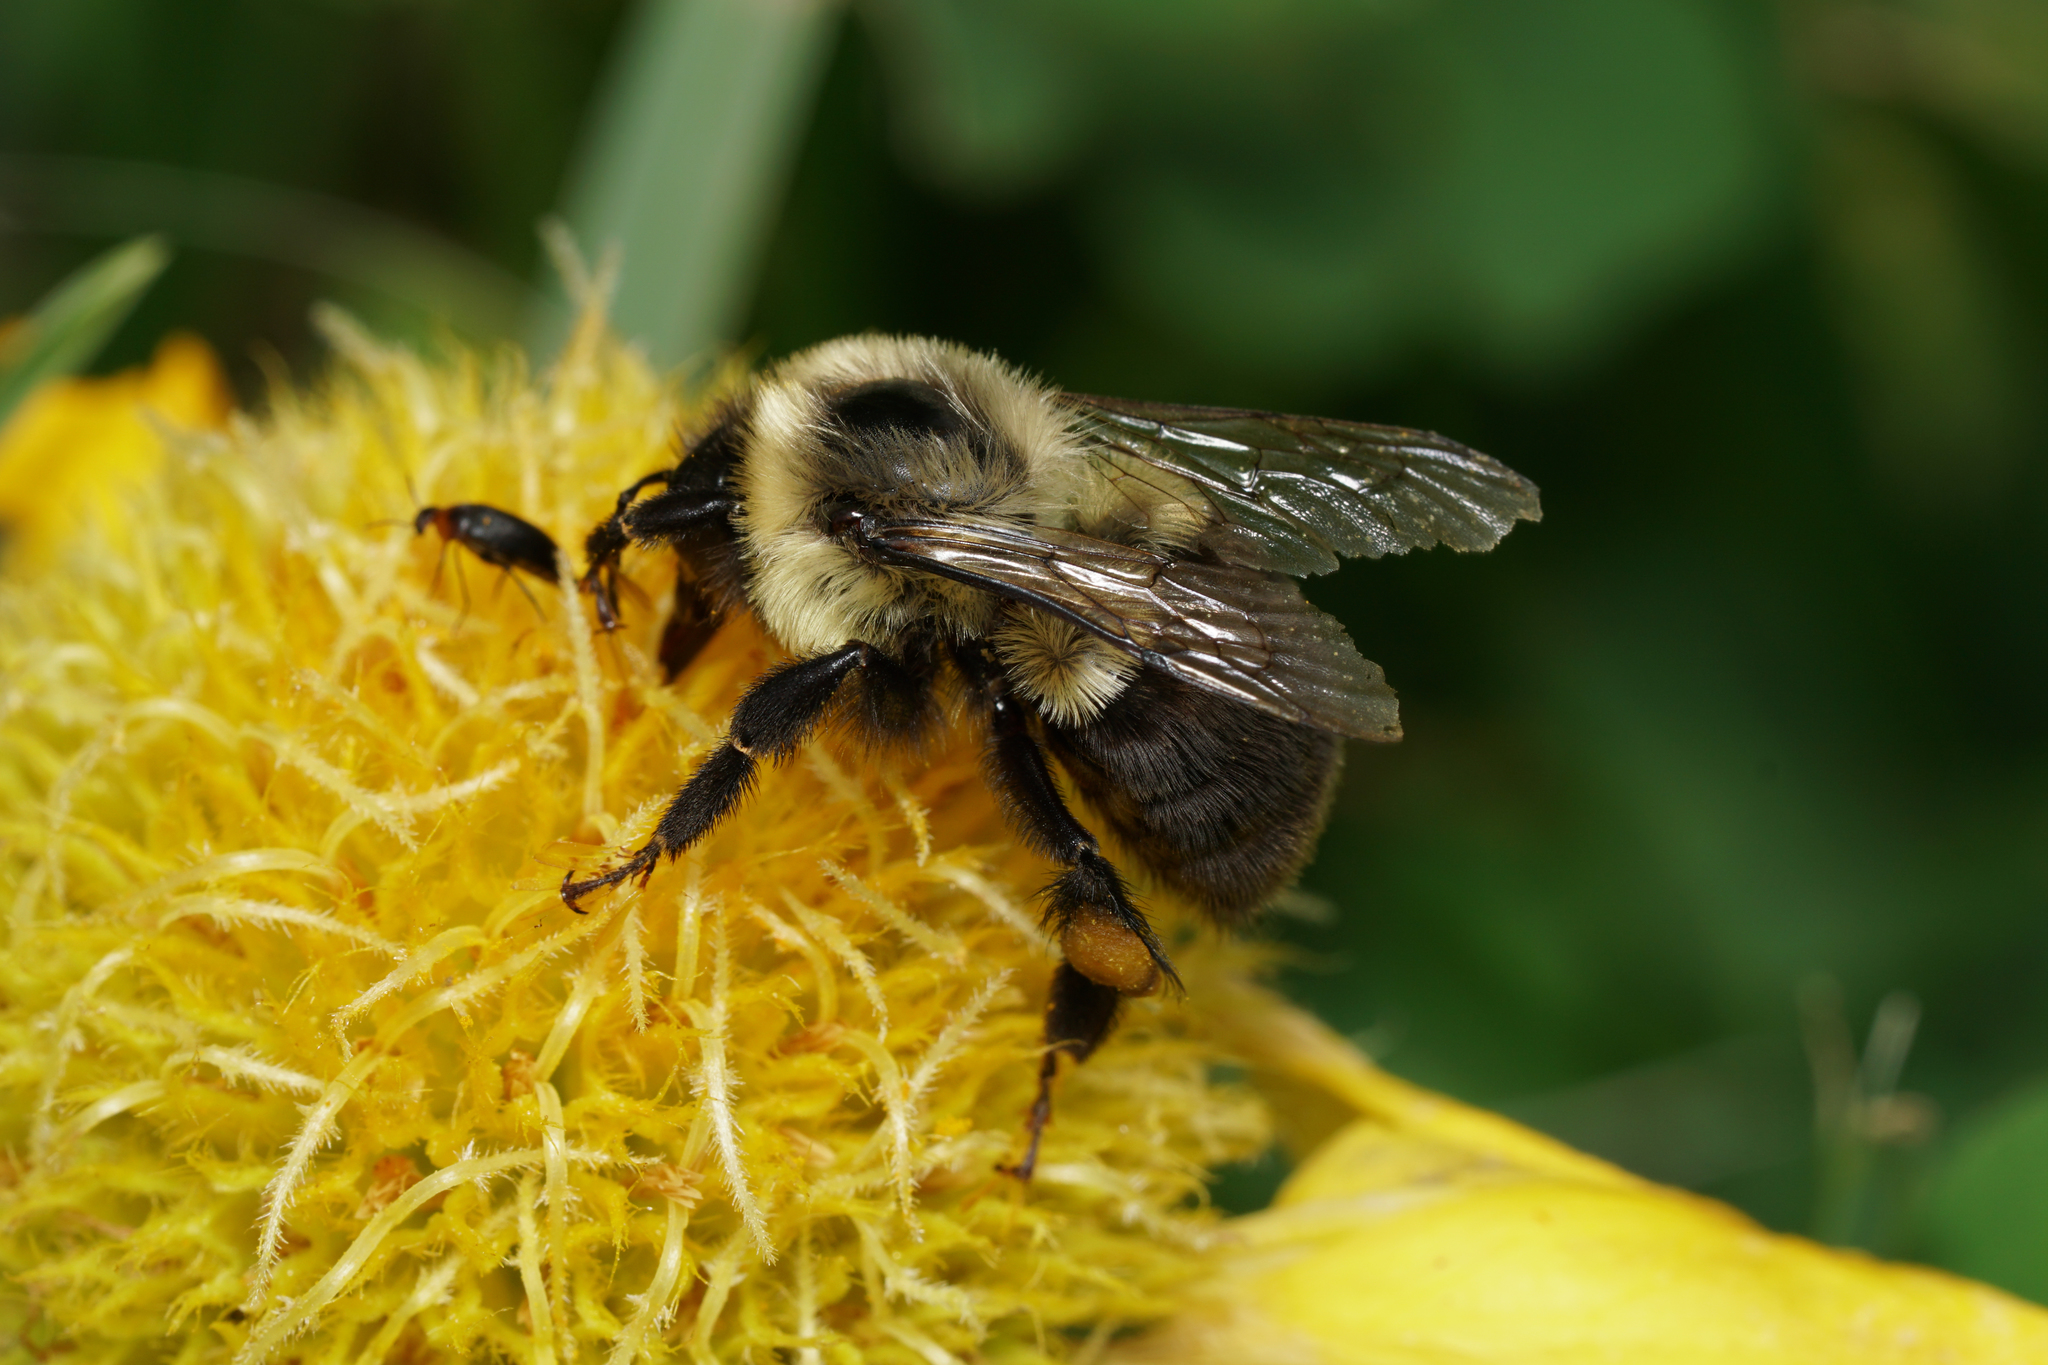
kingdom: Animalia
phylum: Arthropoda
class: Insecta
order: Hymenoptera
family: Apidae
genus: Bombus
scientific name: Bombus impatiens
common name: Common eastern bumble bee
